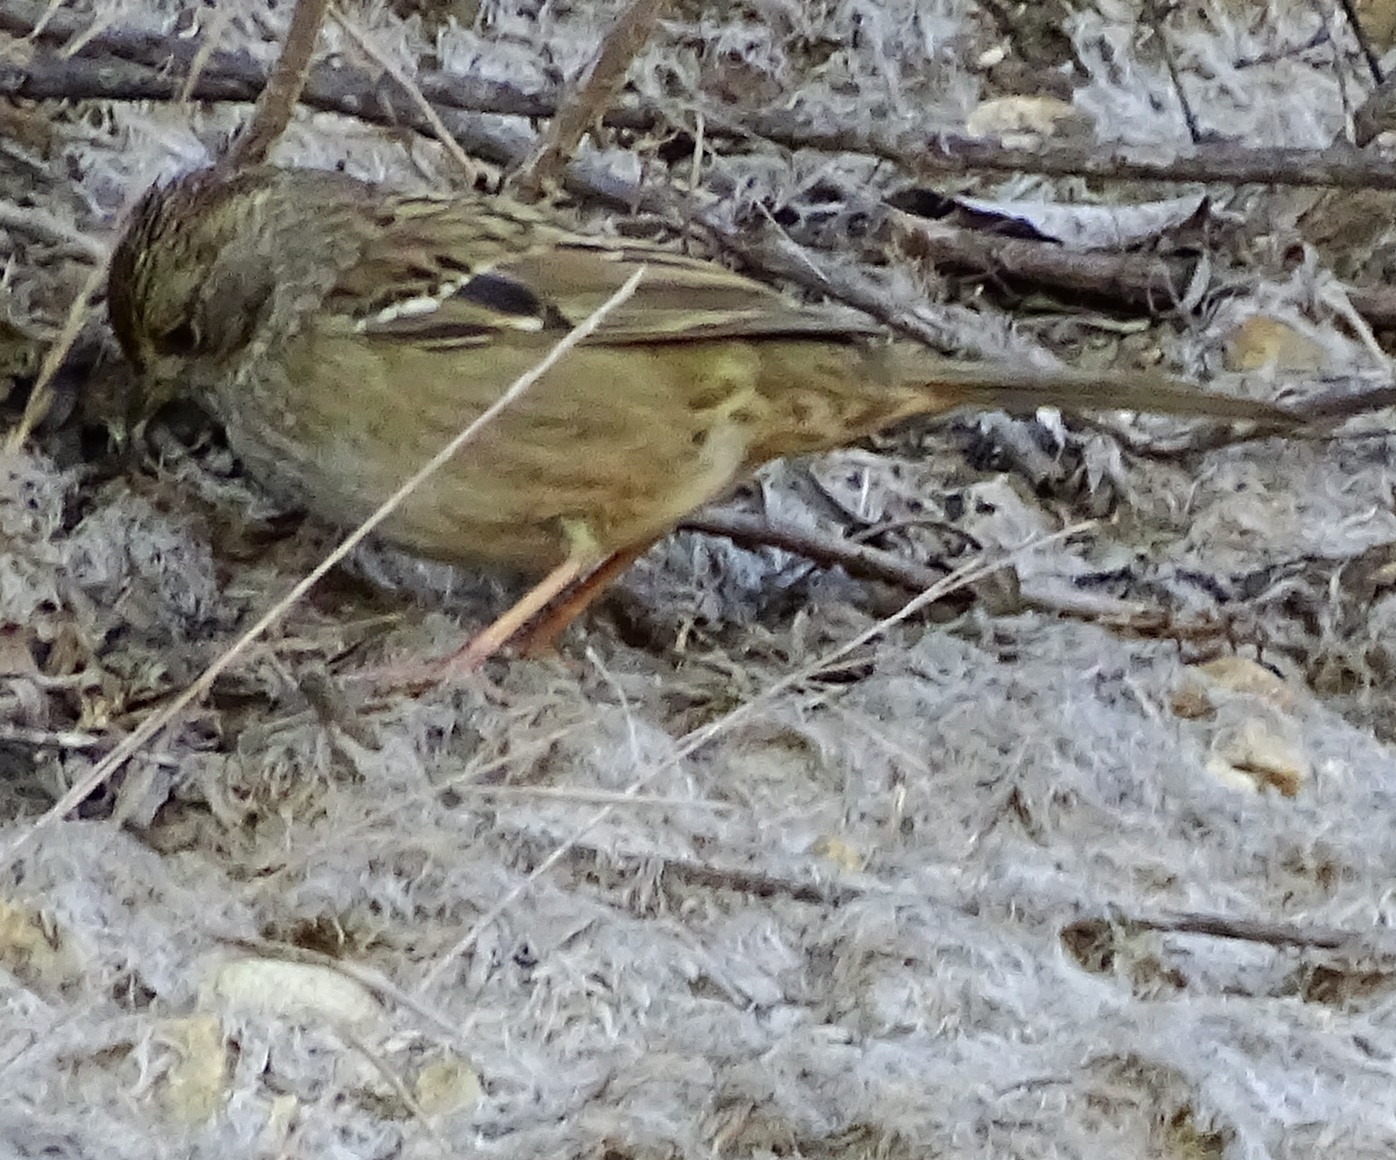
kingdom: Animalia
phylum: Chordata
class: Aves
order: Passeriformes
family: Passerellidae
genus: Zonotrichia
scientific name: Zonotrichia atricapilla
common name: Golden-crowned sparrow
